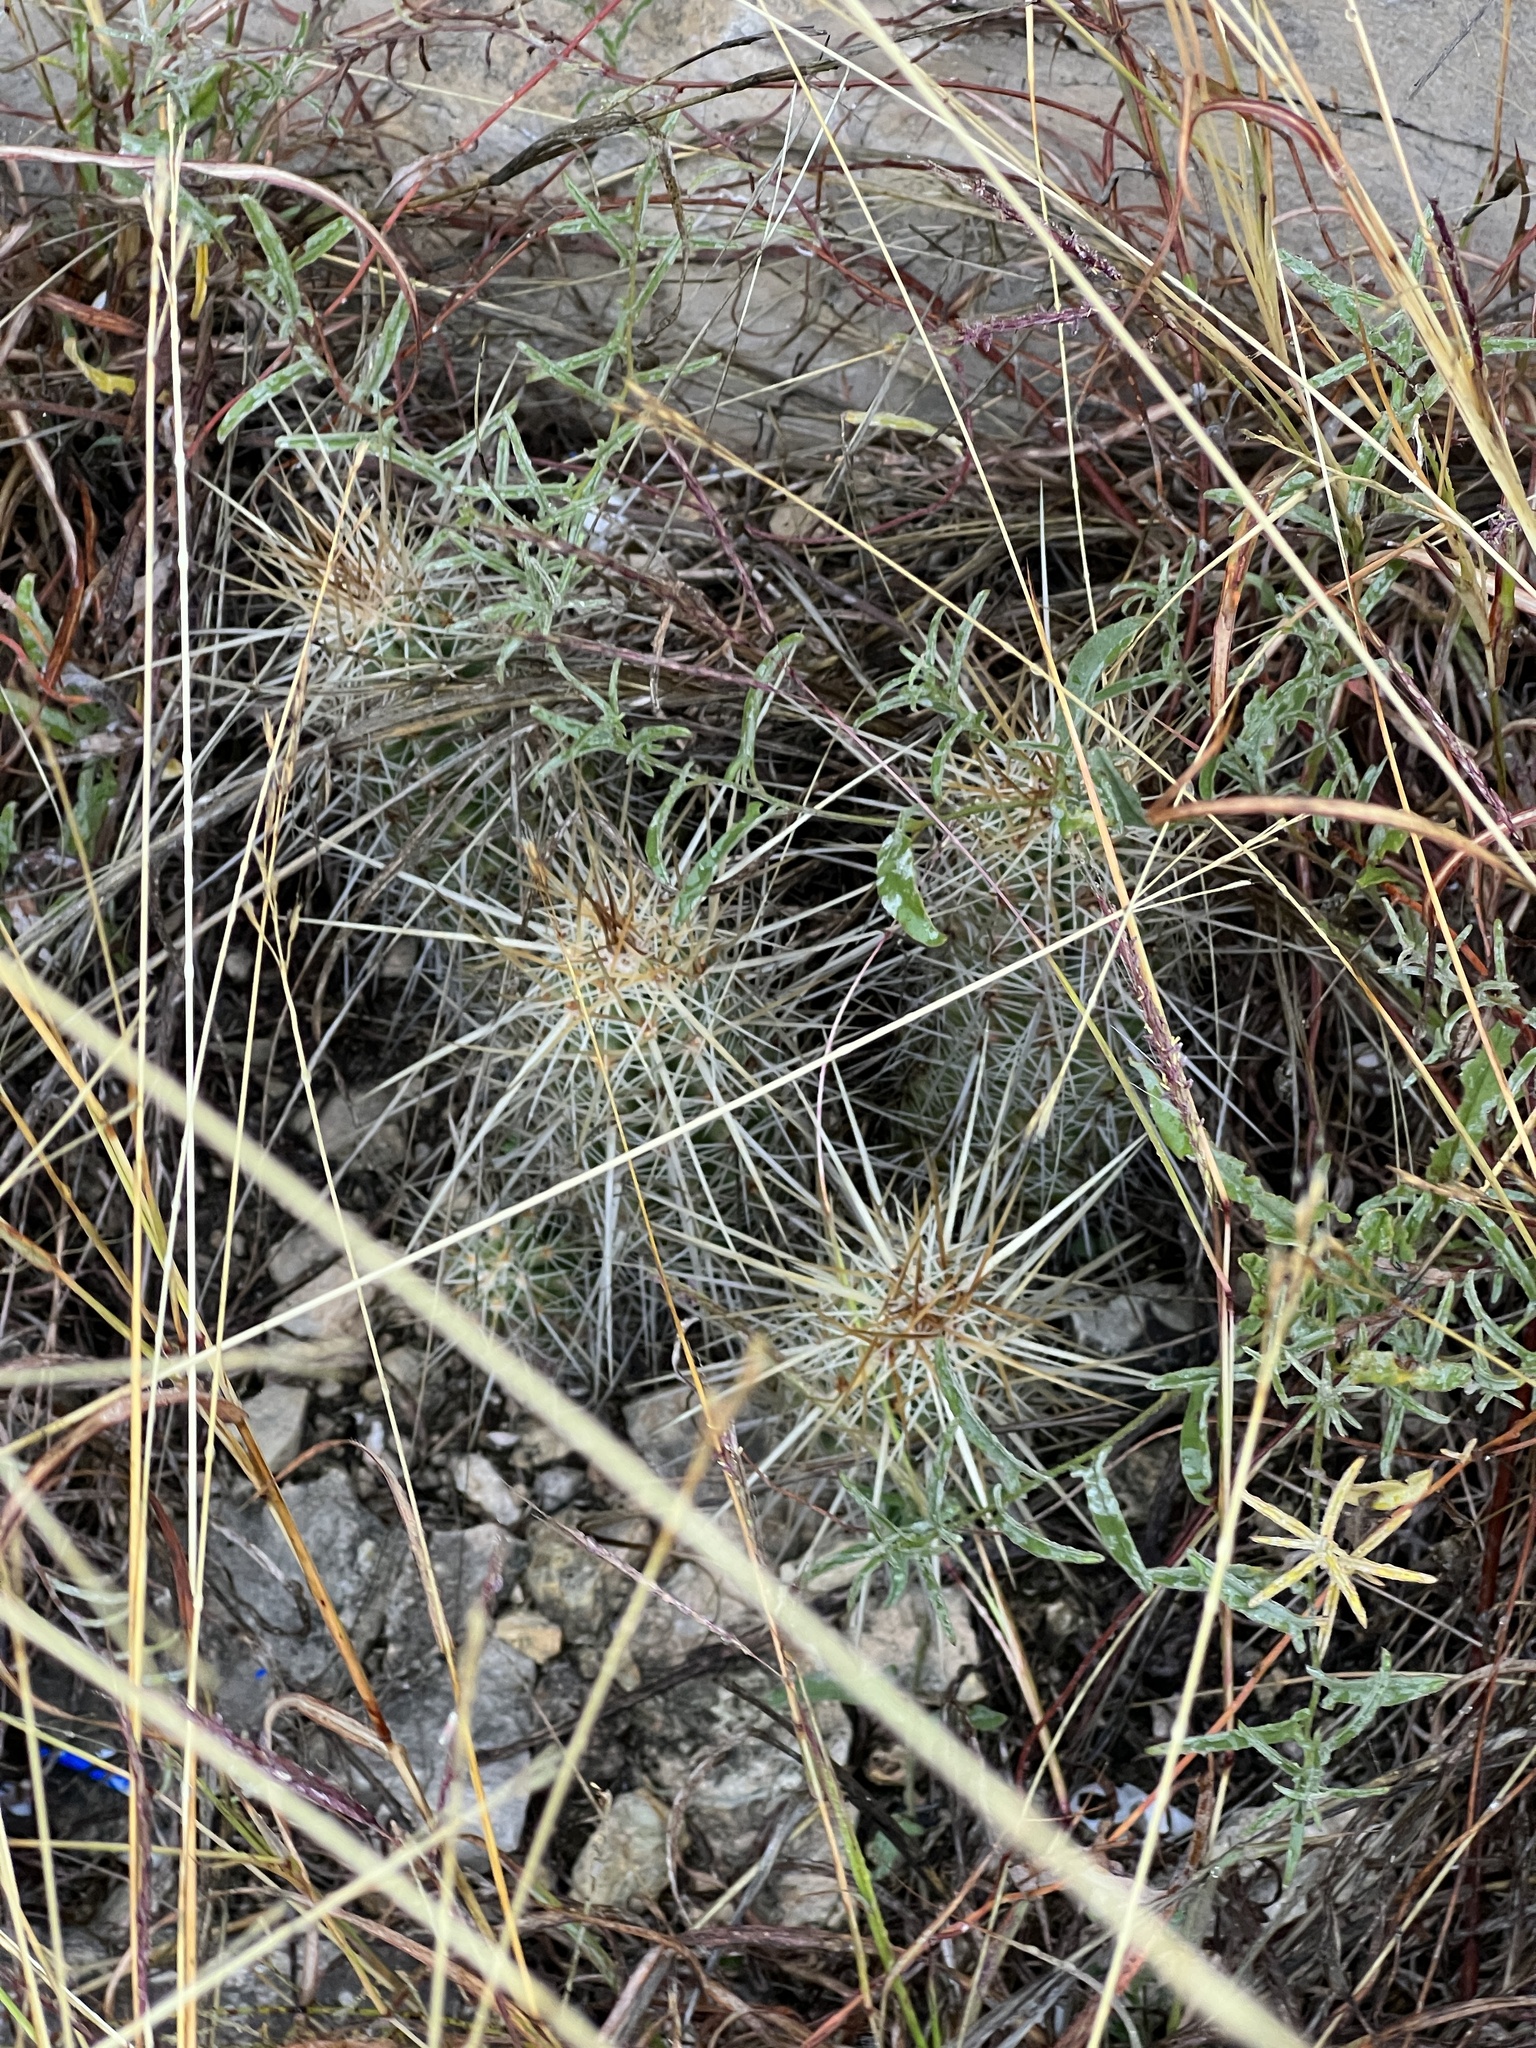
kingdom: Plantae
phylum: Tracheophyta
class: Magnoliopsida
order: Caryophyllales
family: Cactaceae
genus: Echinocereus
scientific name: Echinocereus enneacanthus
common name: Pitaya
